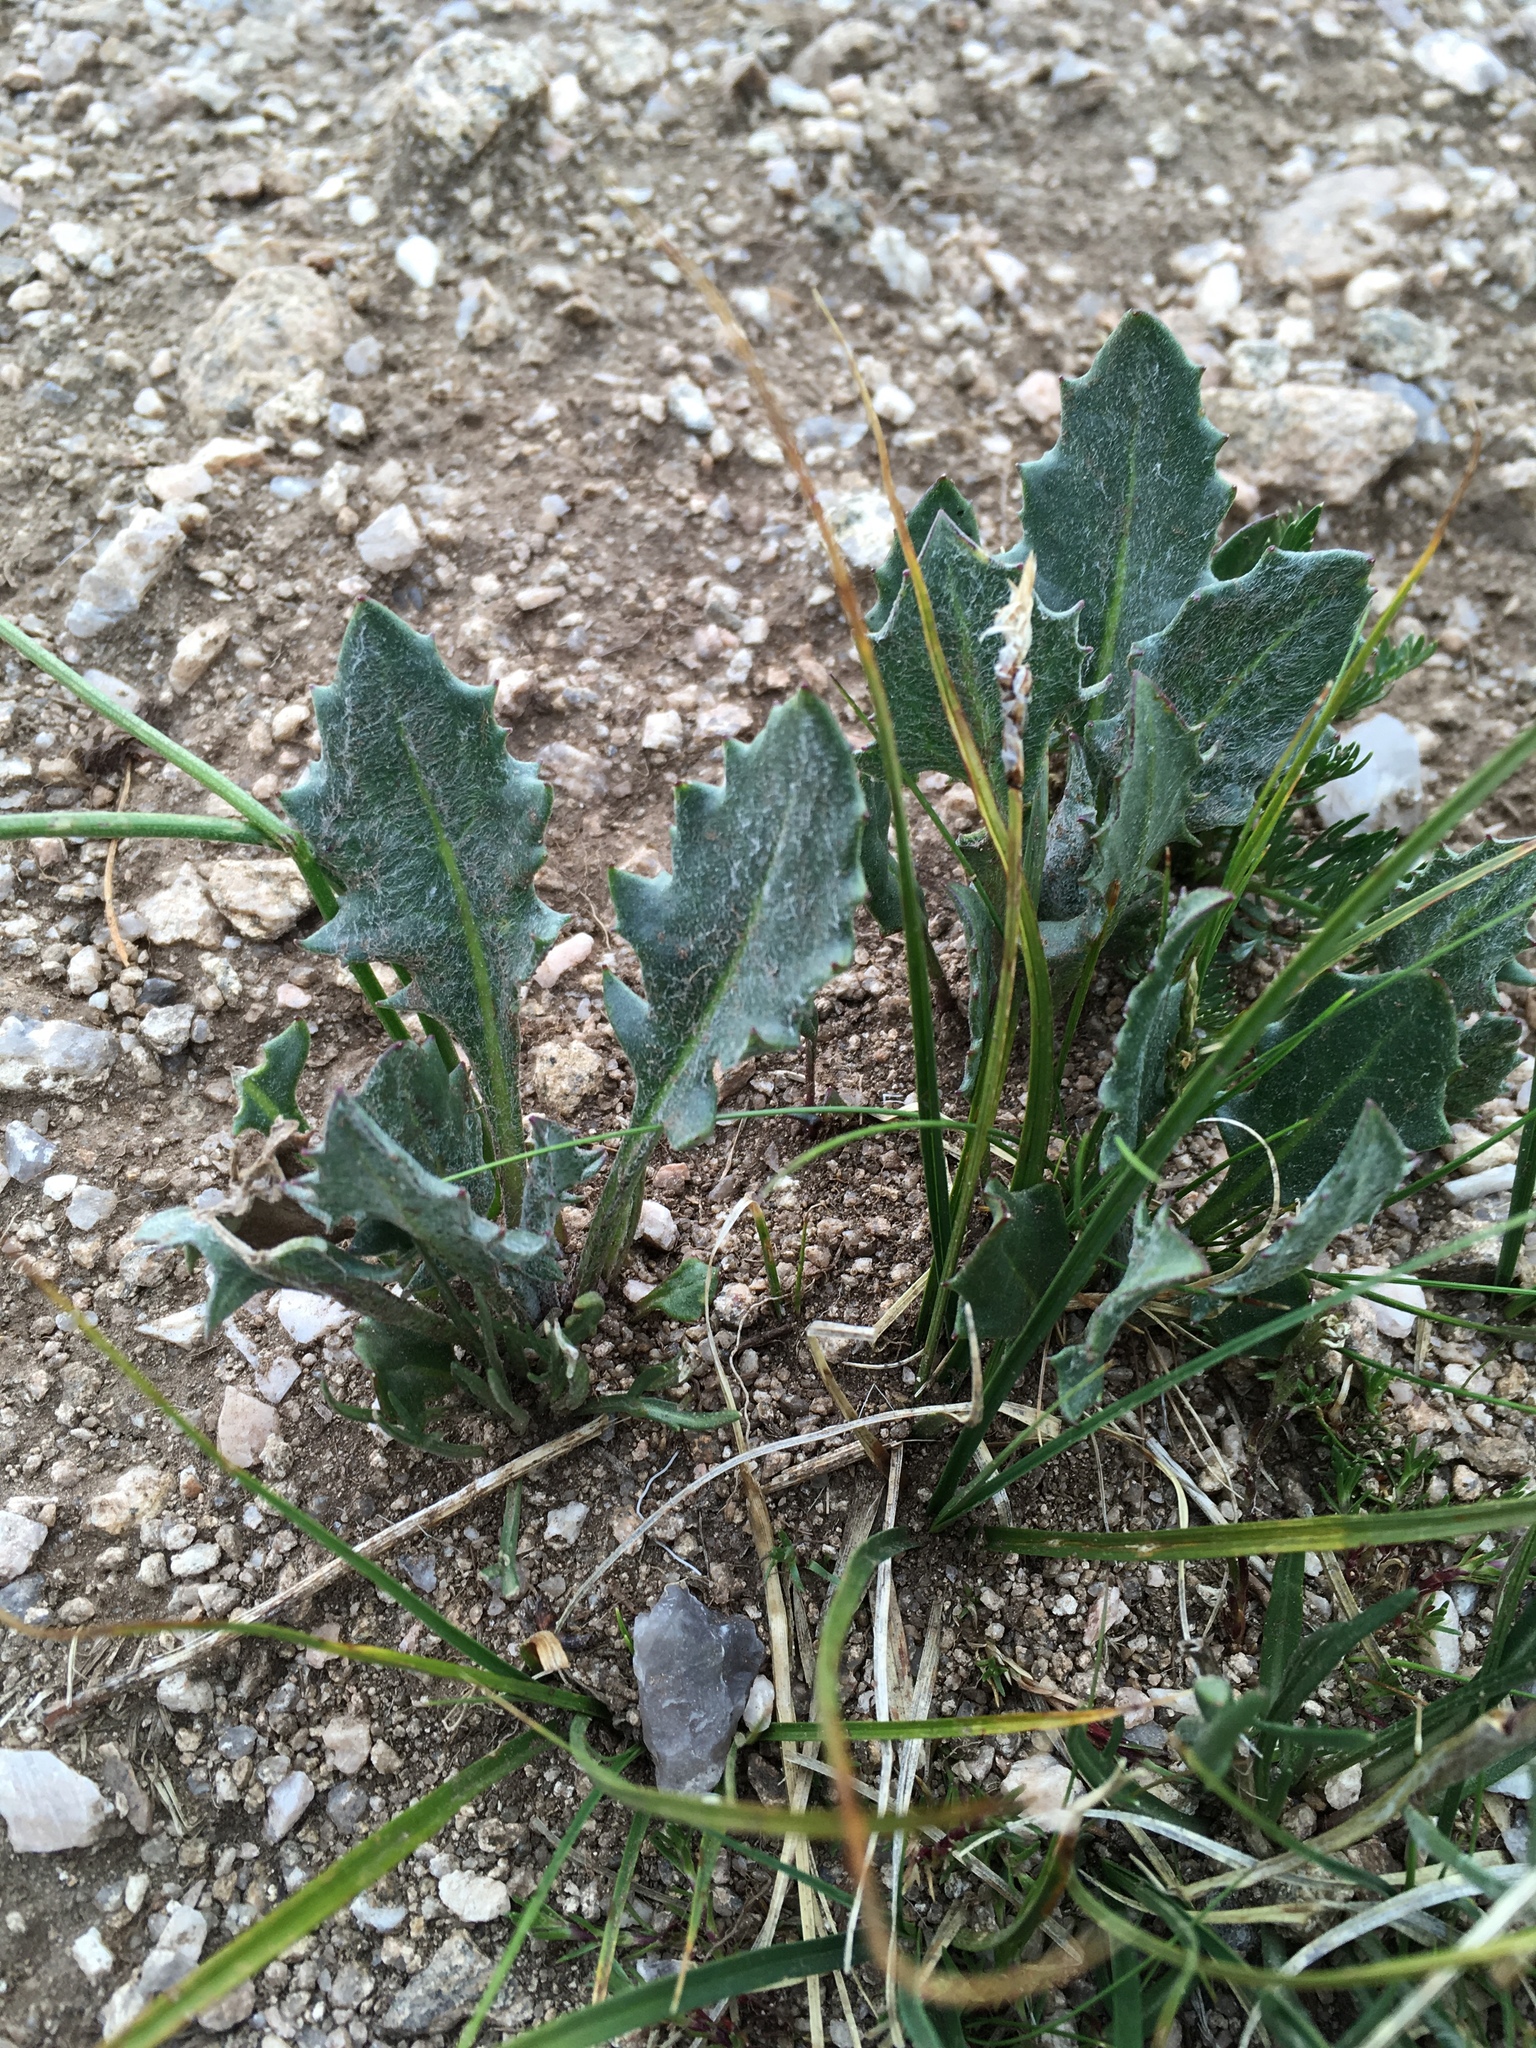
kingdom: Plantae
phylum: Tracheophyta
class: Magnoliopsida
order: Asterales
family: Asteraceae
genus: Senecio
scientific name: Senecio taraxacoides
